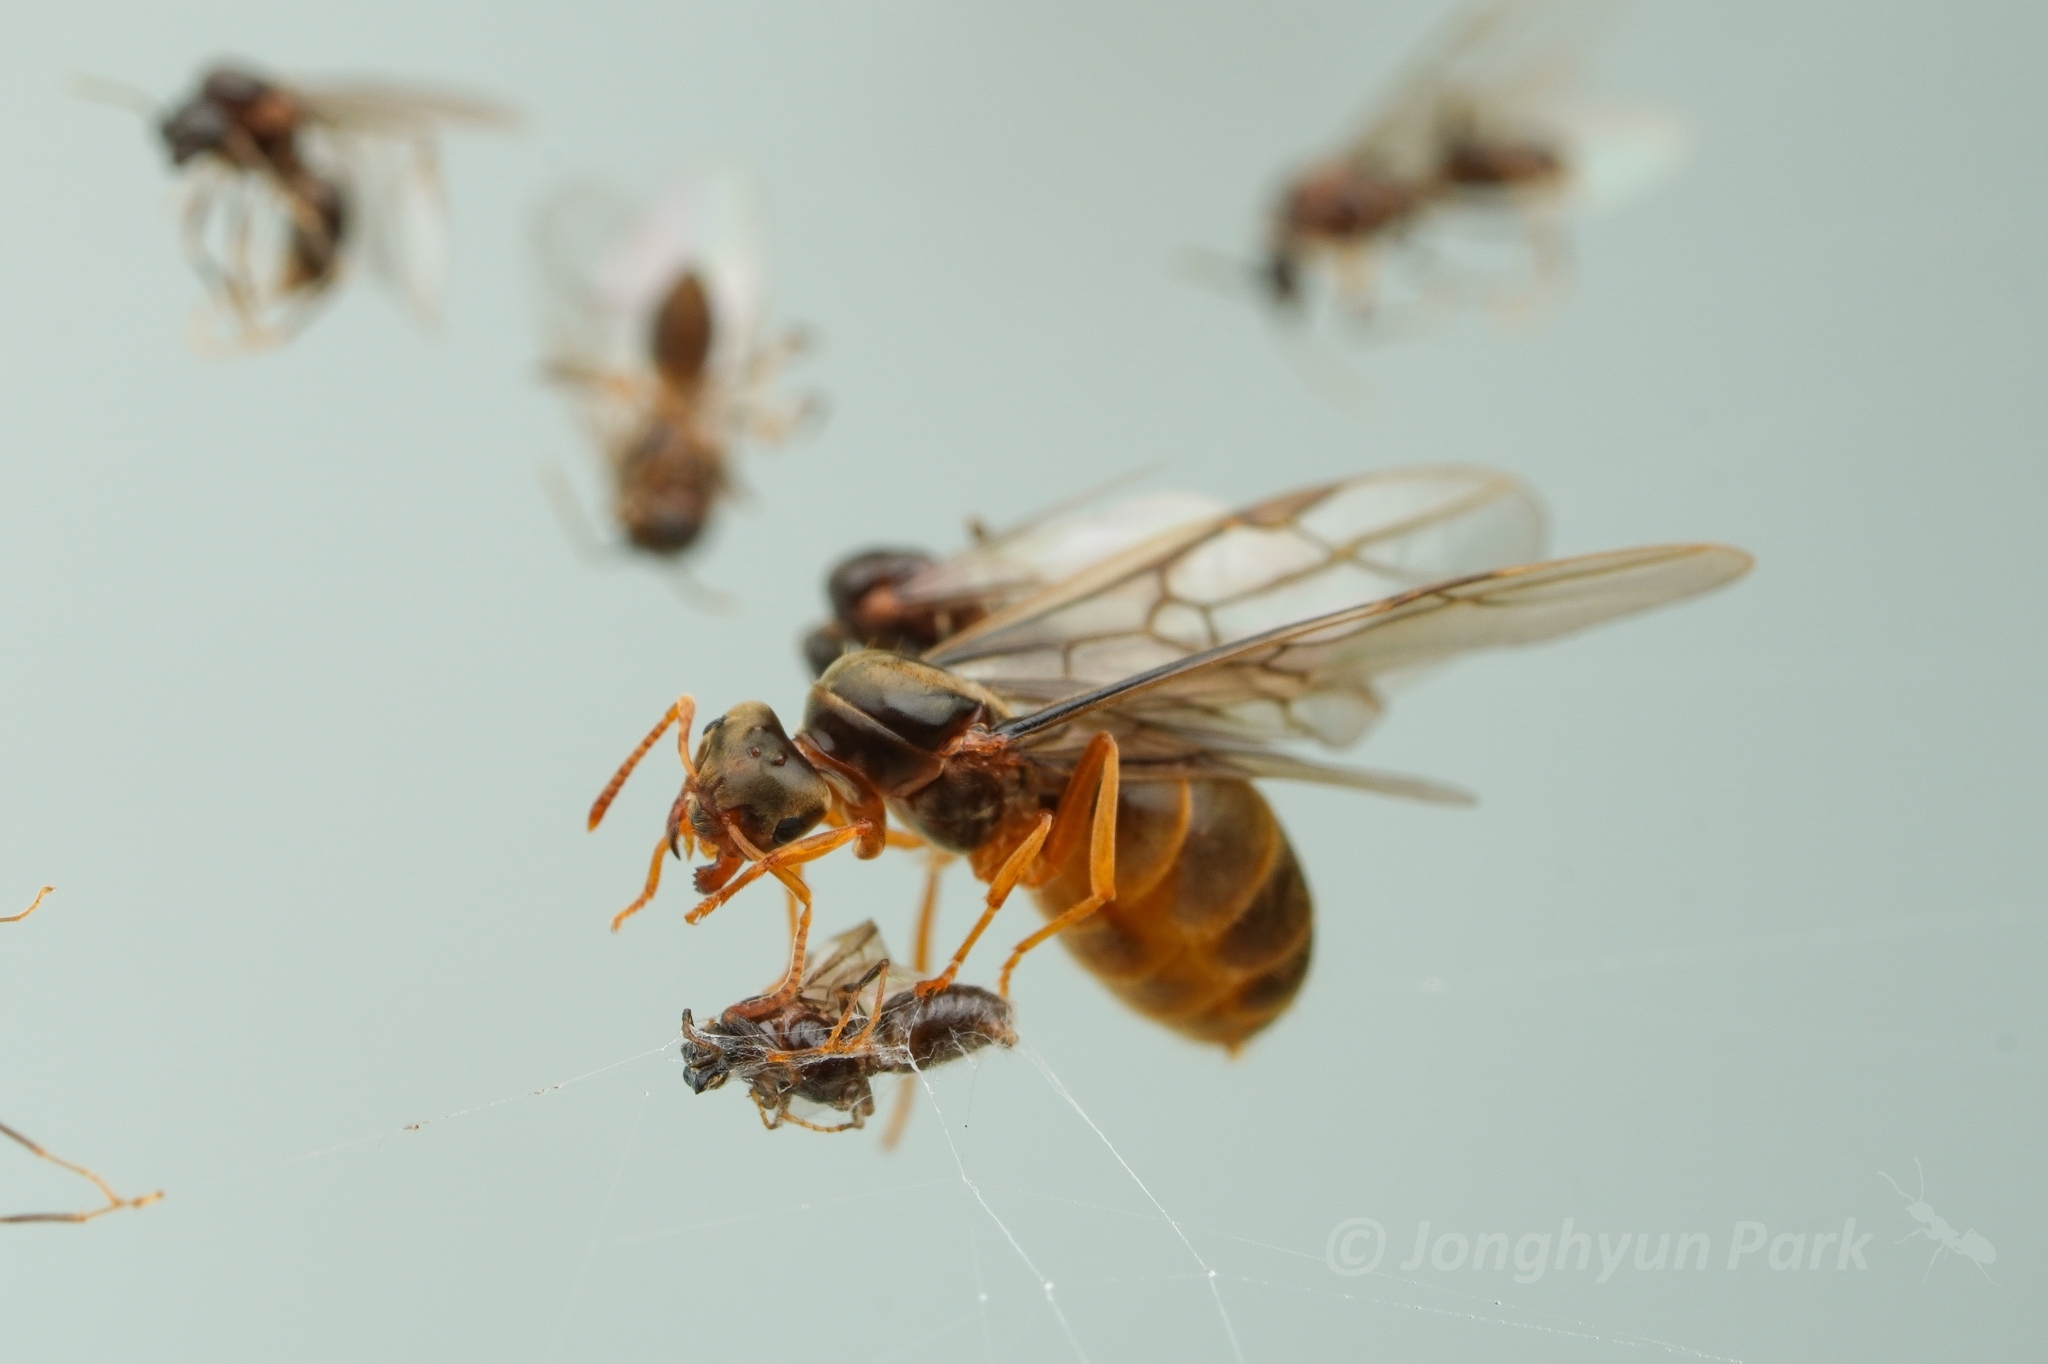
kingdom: Animalia
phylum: Arthropoda
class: Insecta
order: Hymenoptera
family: Formicidae
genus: Lasius
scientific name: Lasius japonicus
